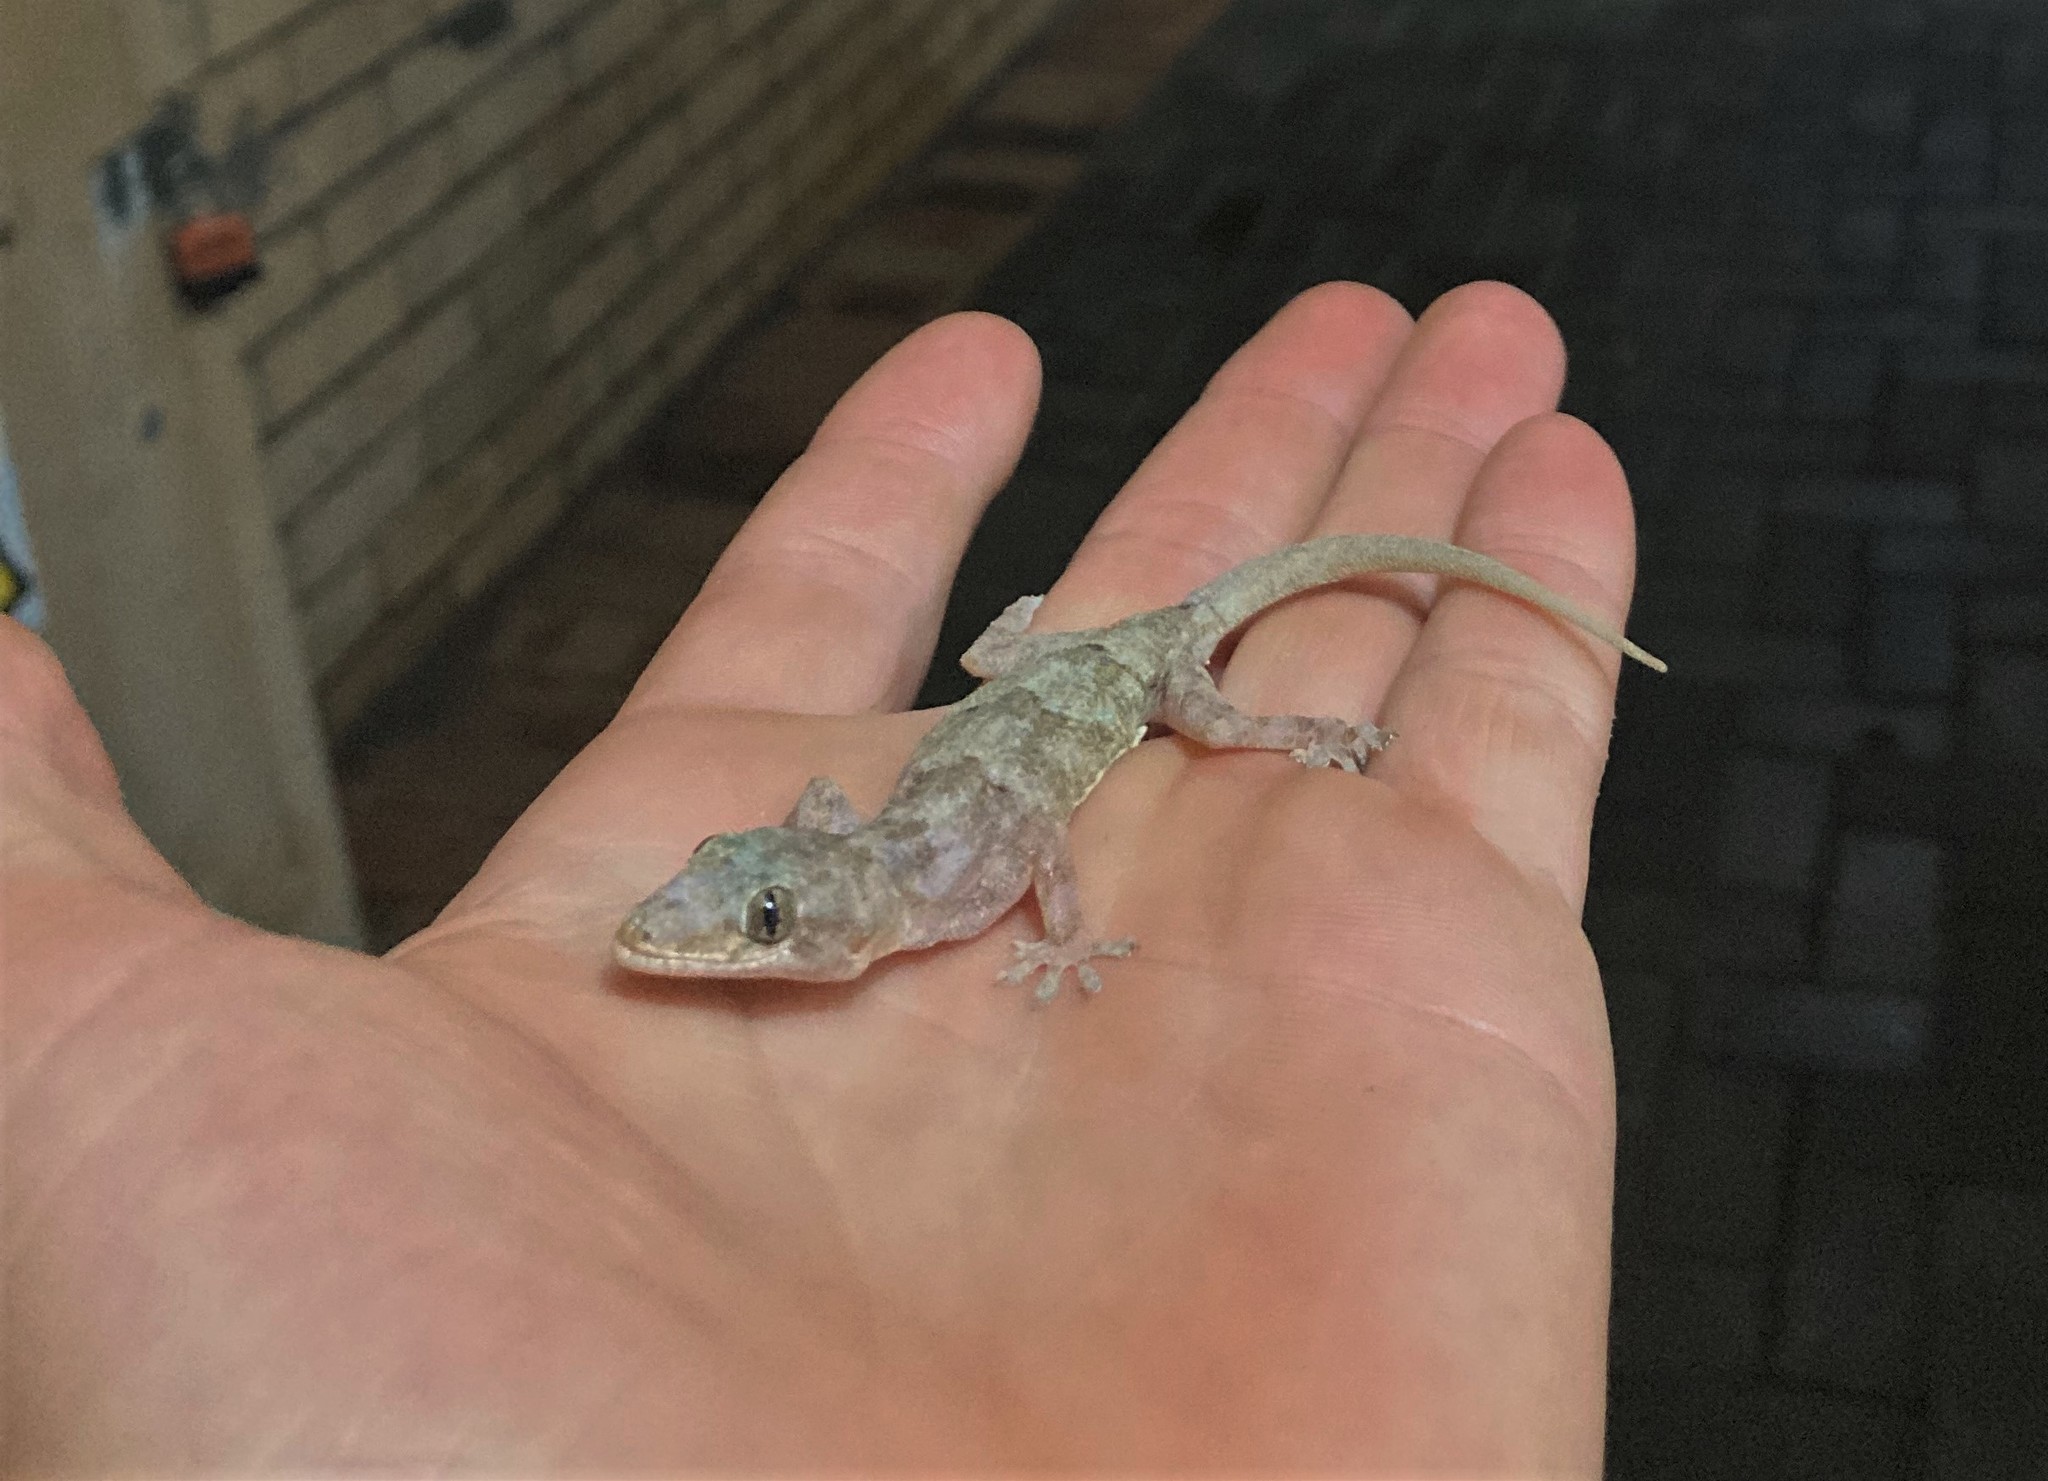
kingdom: Animalia
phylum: Chordata
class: Squamata
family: Gekkonidae
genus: Hemidactylus
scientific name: Hemidactylus mabouia
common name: House gecko
